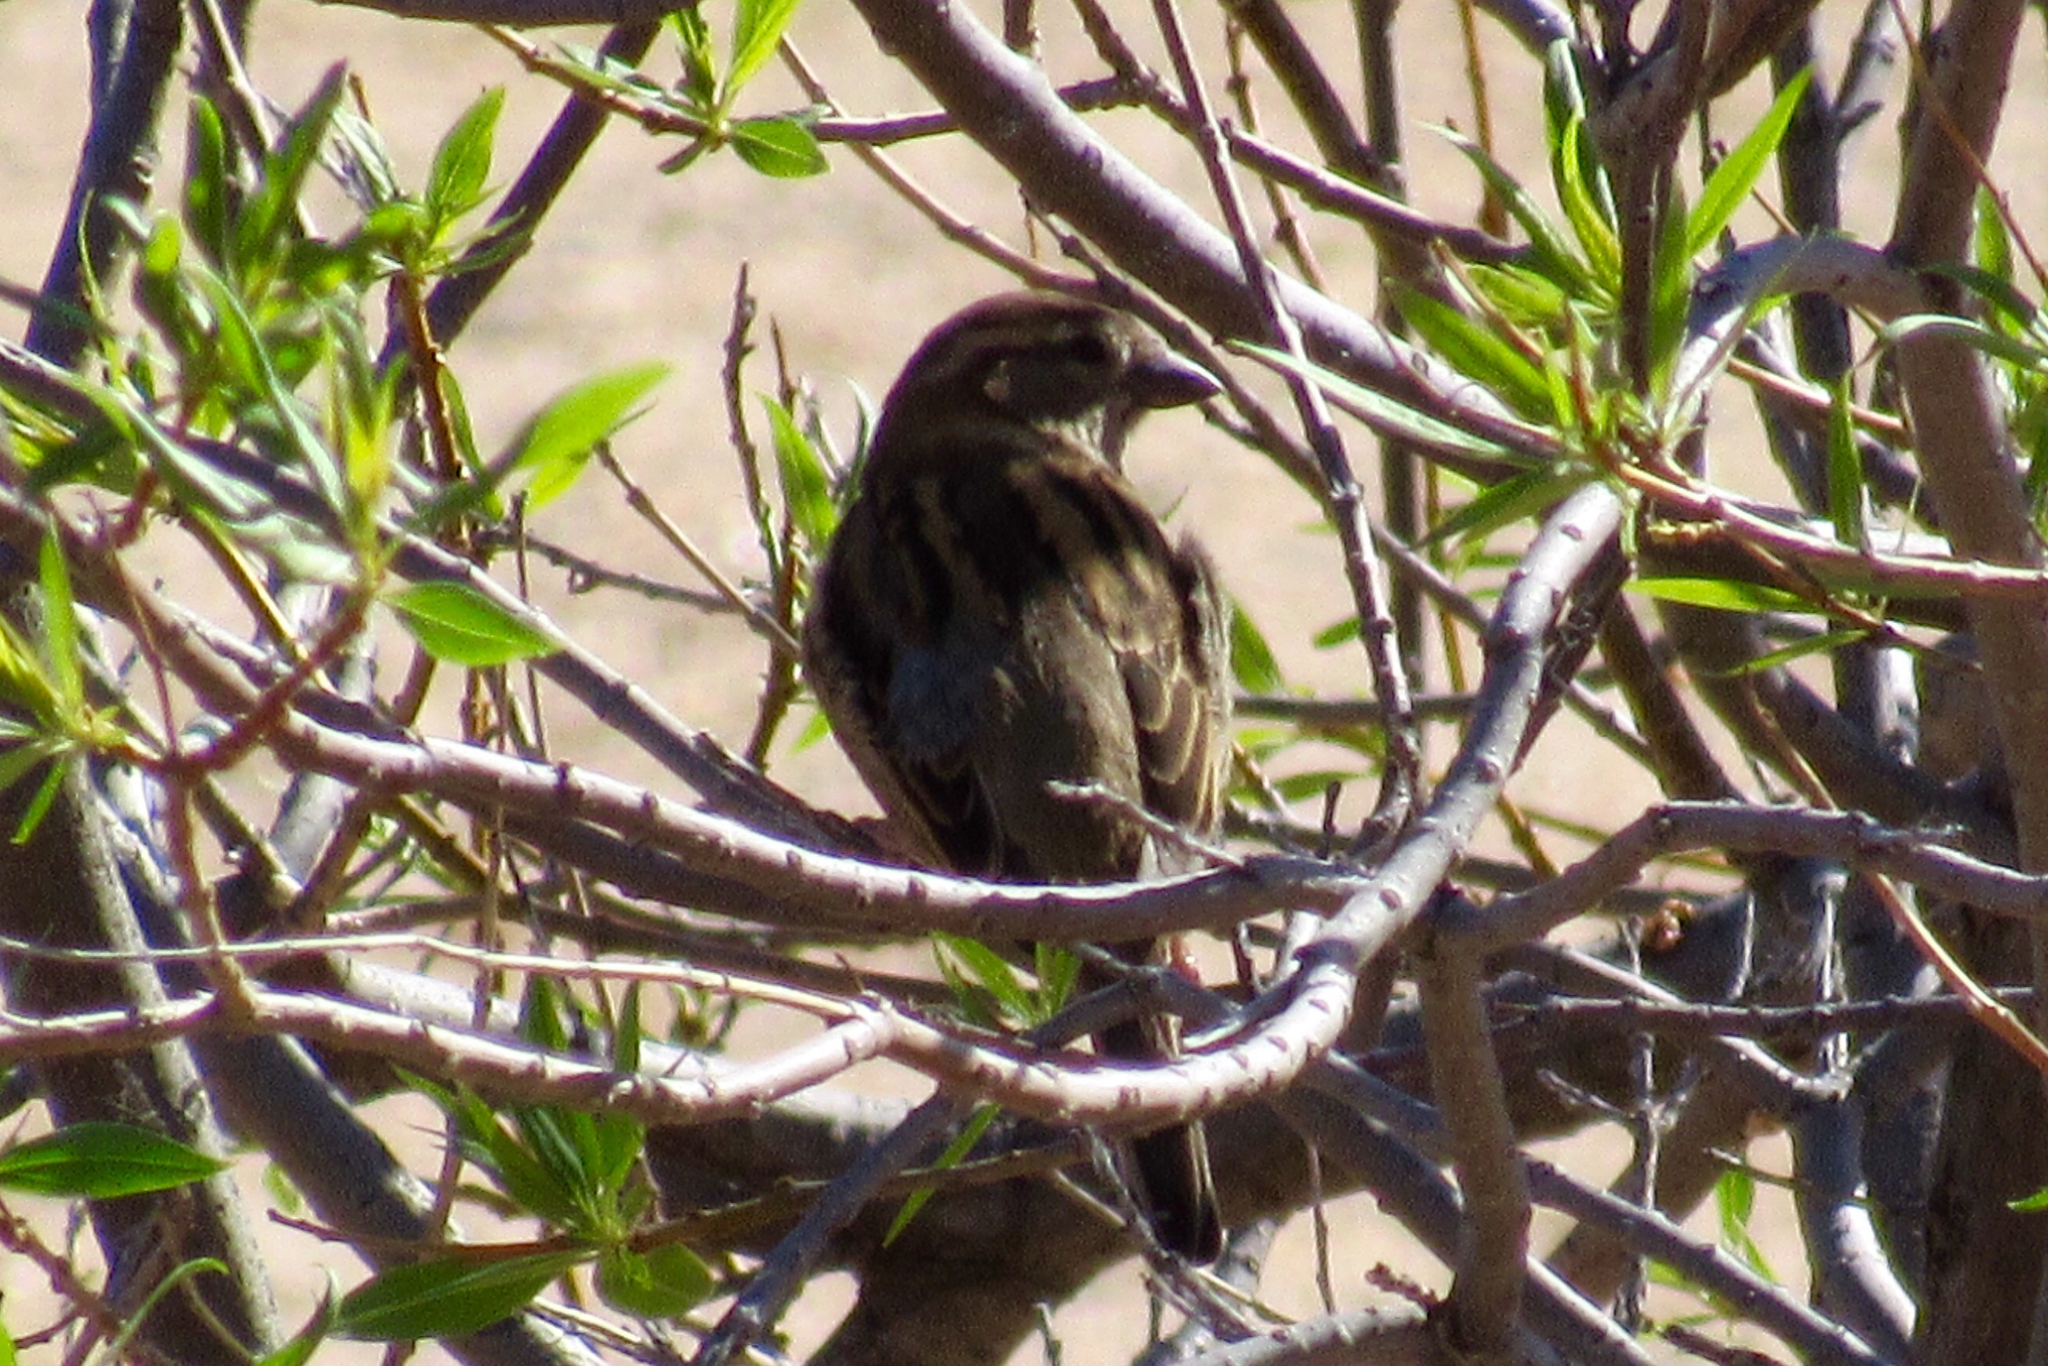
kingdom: Animalia
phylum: Chordata
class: Aves
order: Passeriformes
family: Passeridae
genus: Passer
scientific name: Passer domesticus
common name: House sparrow
